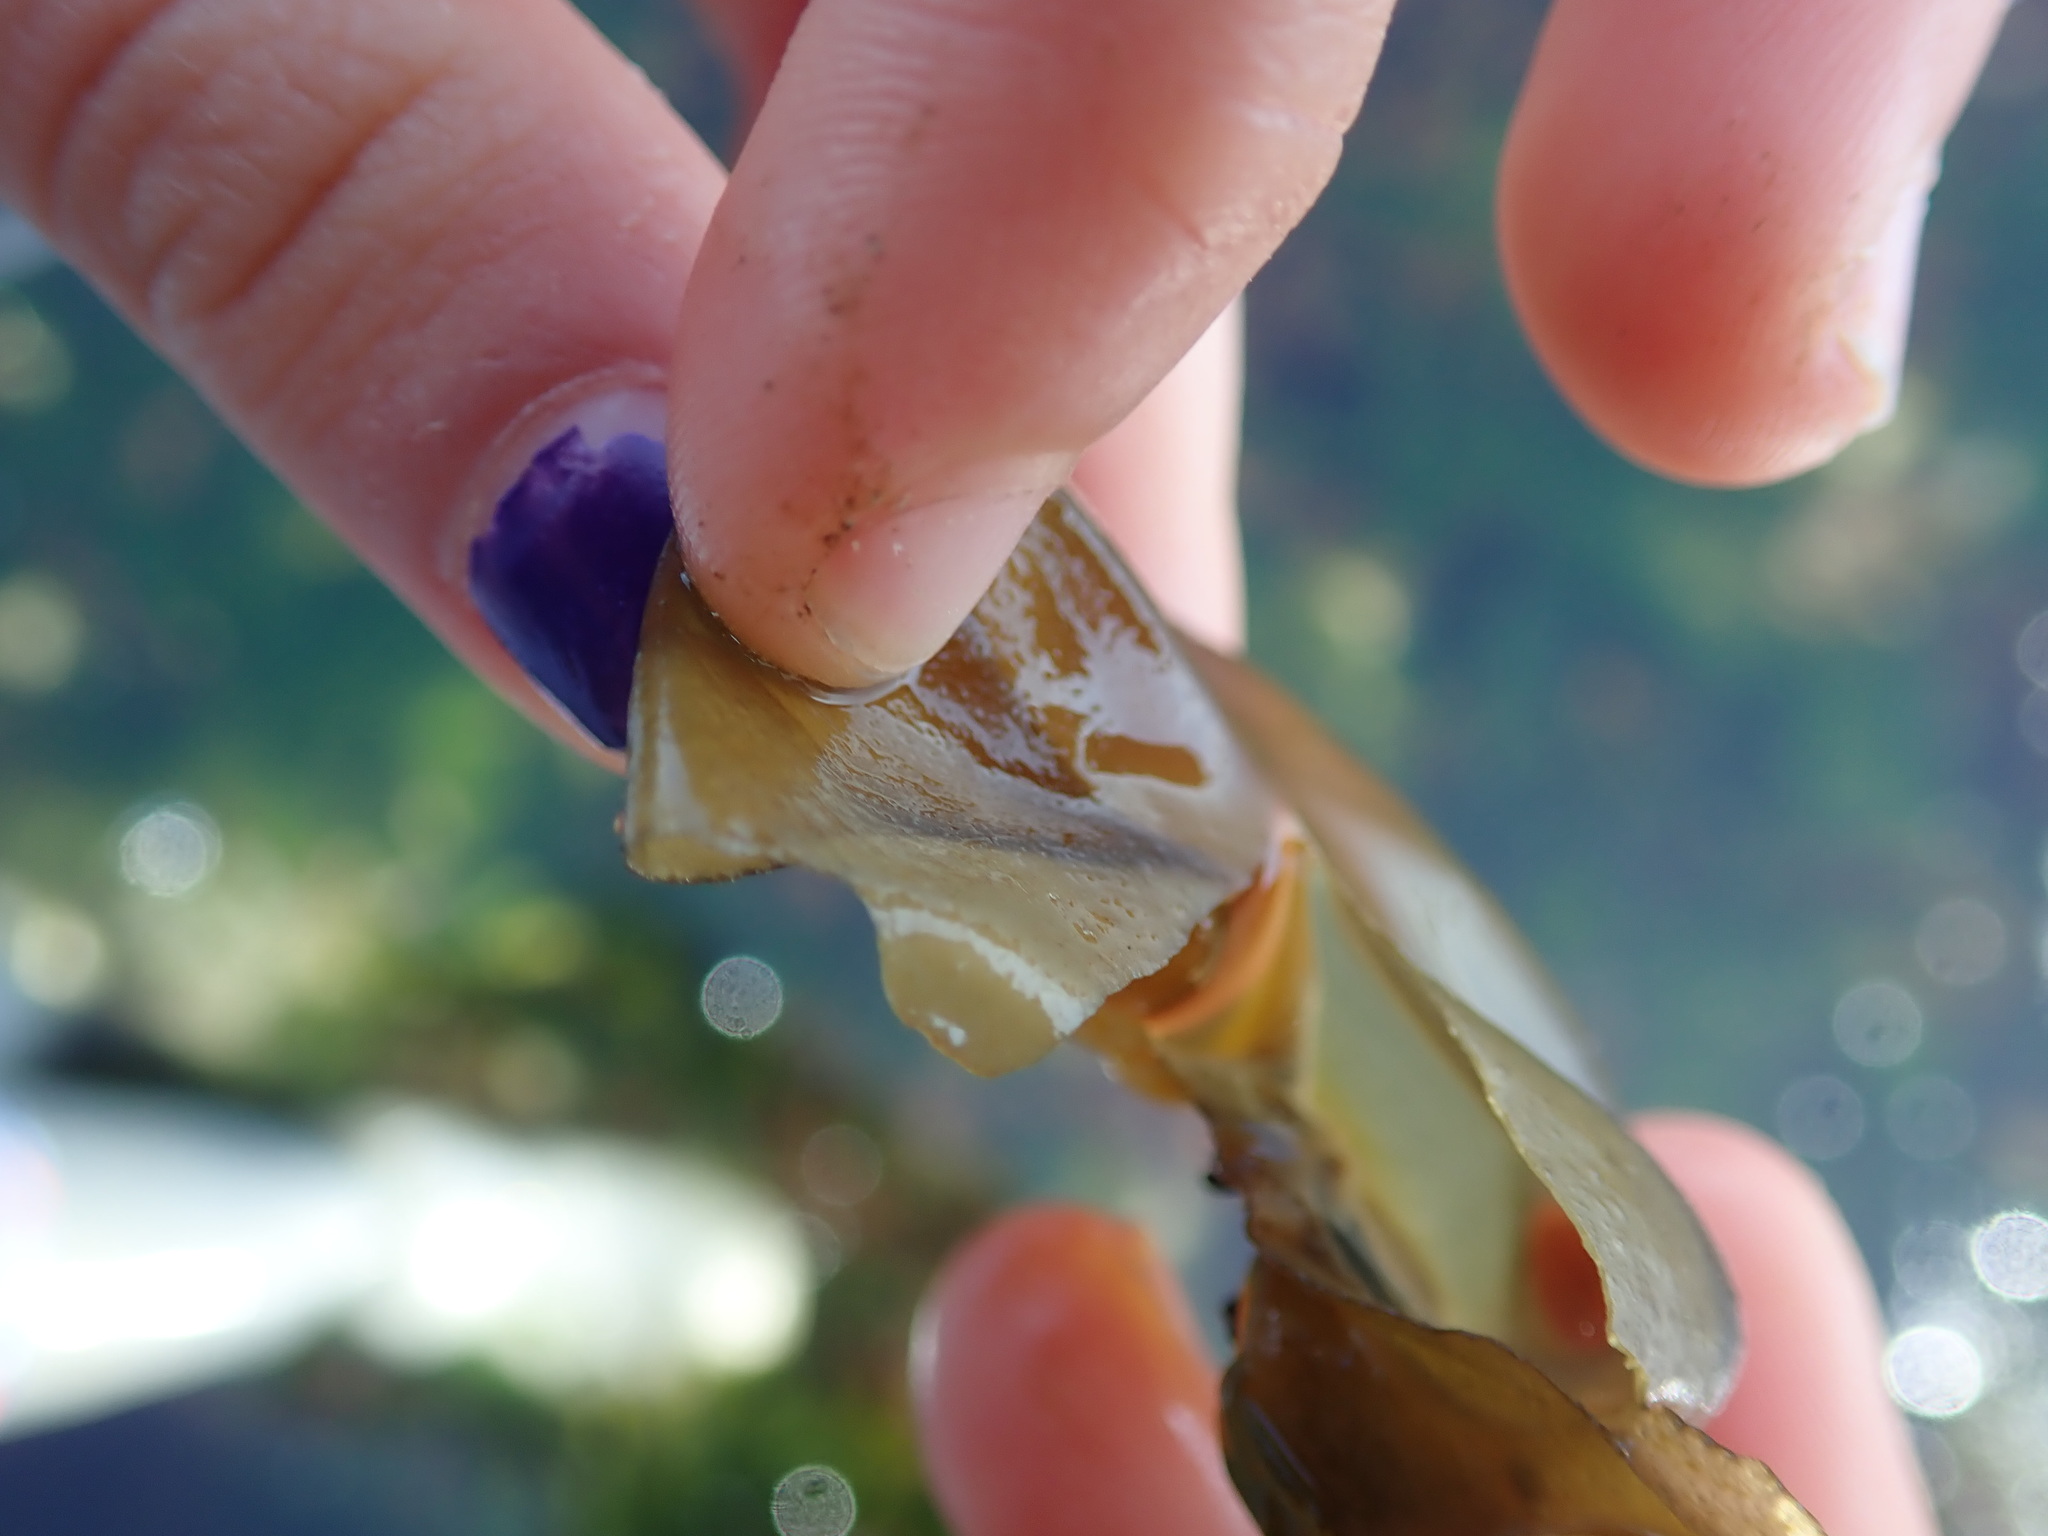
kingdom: Chromista
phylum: Ochrophyta
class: Phaeophyceae
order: Scytosiphonales
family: Scytosiphonaceae
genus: Colpomenia
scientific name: Colpomenia peregrina
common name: Oyster thief
